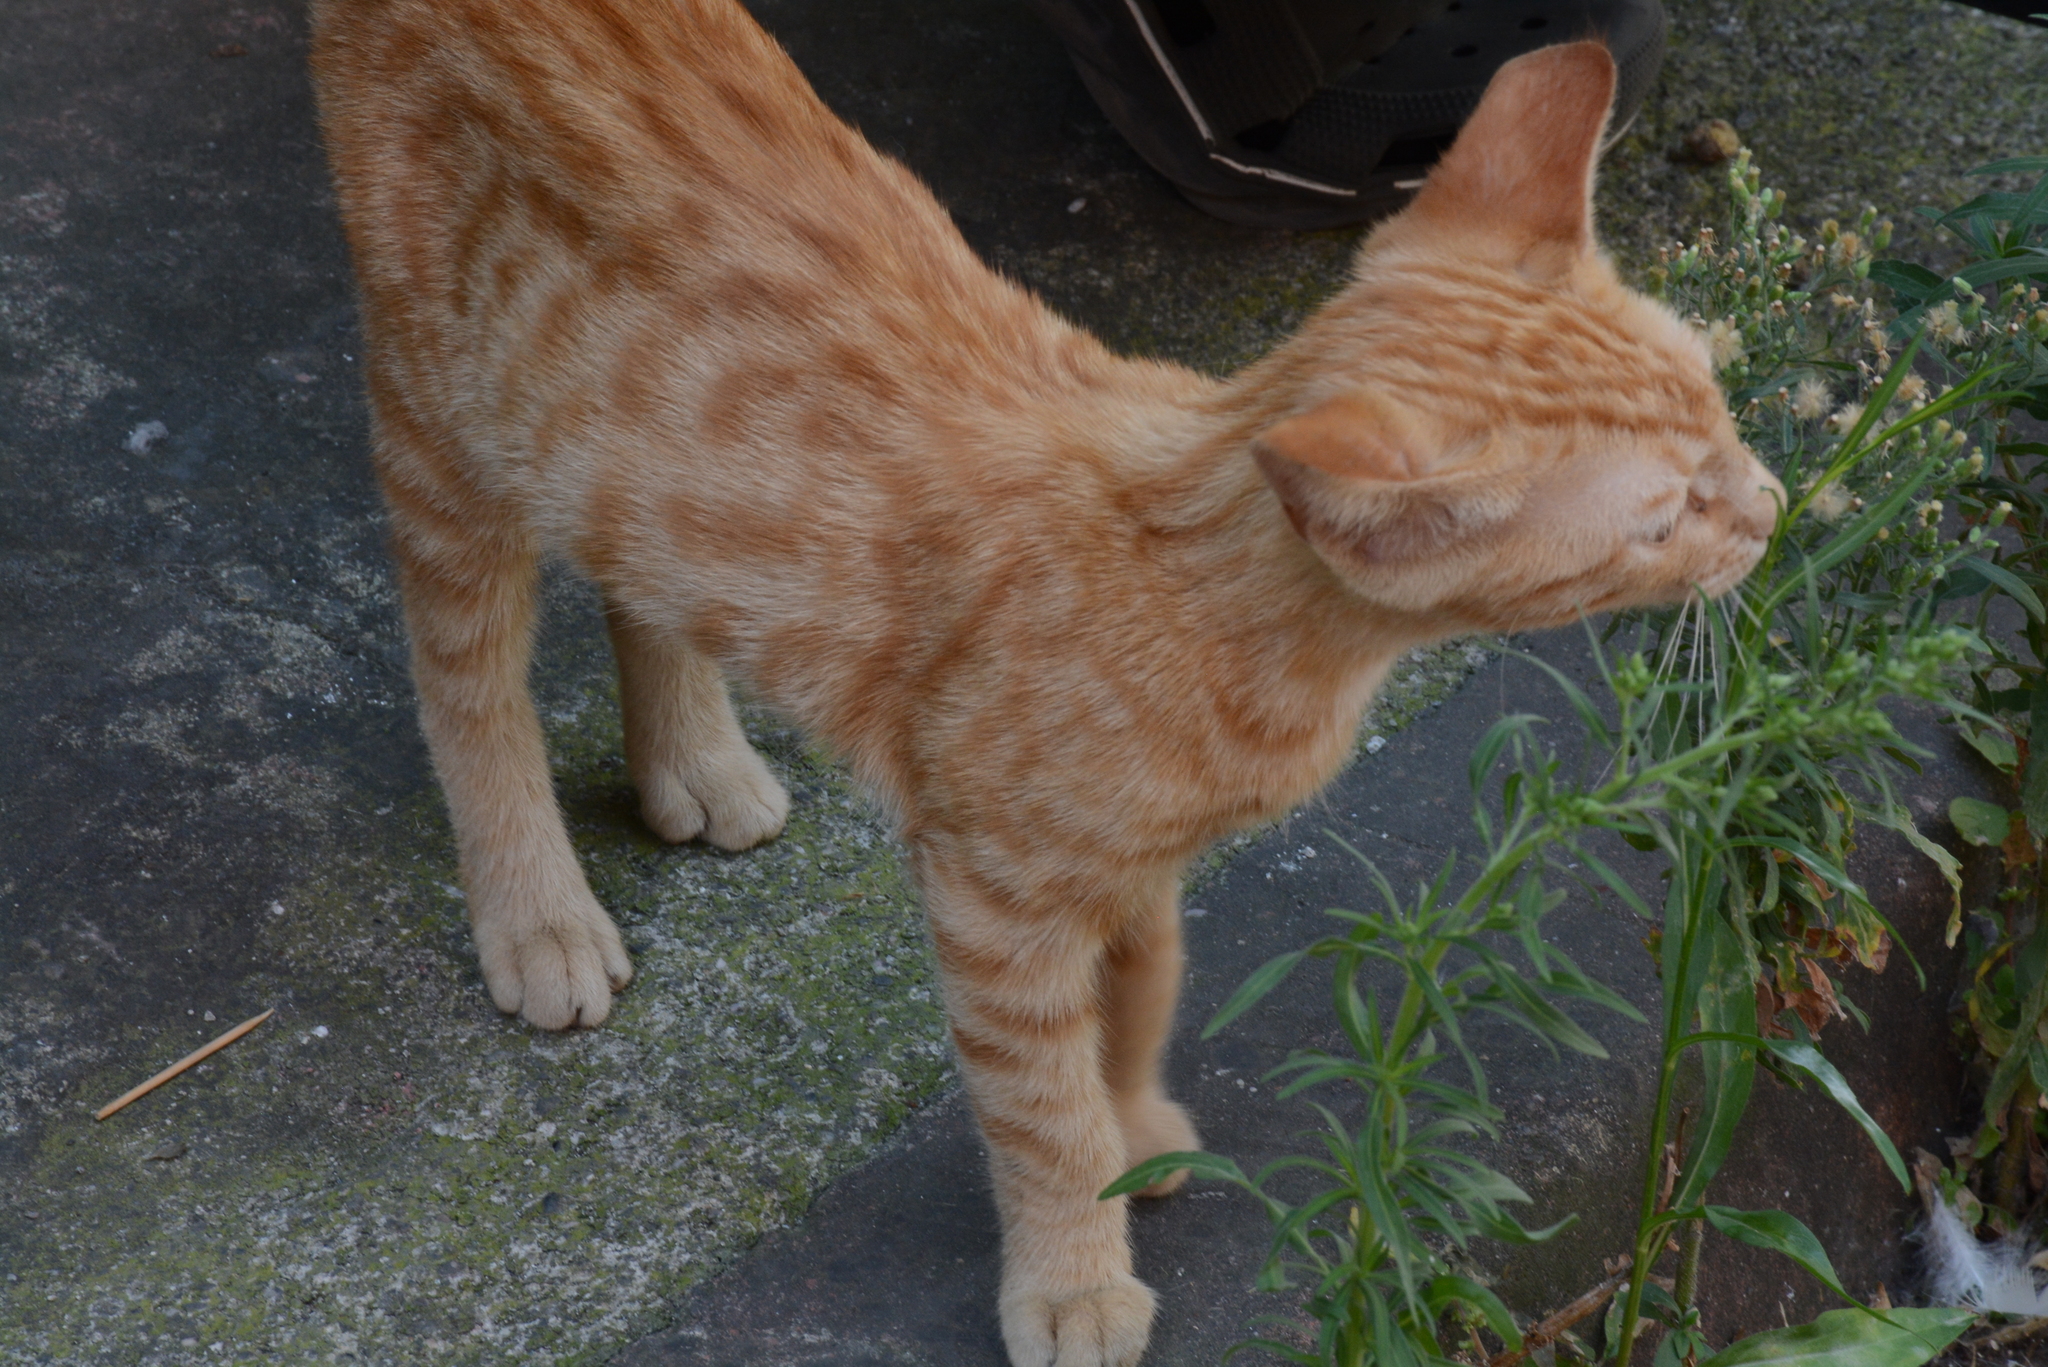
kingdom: Animalia
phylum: Chordata
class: Mammalia
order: Carnivora
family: Felidae
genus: Felis
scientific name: Felis catus
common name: Domestic cat
